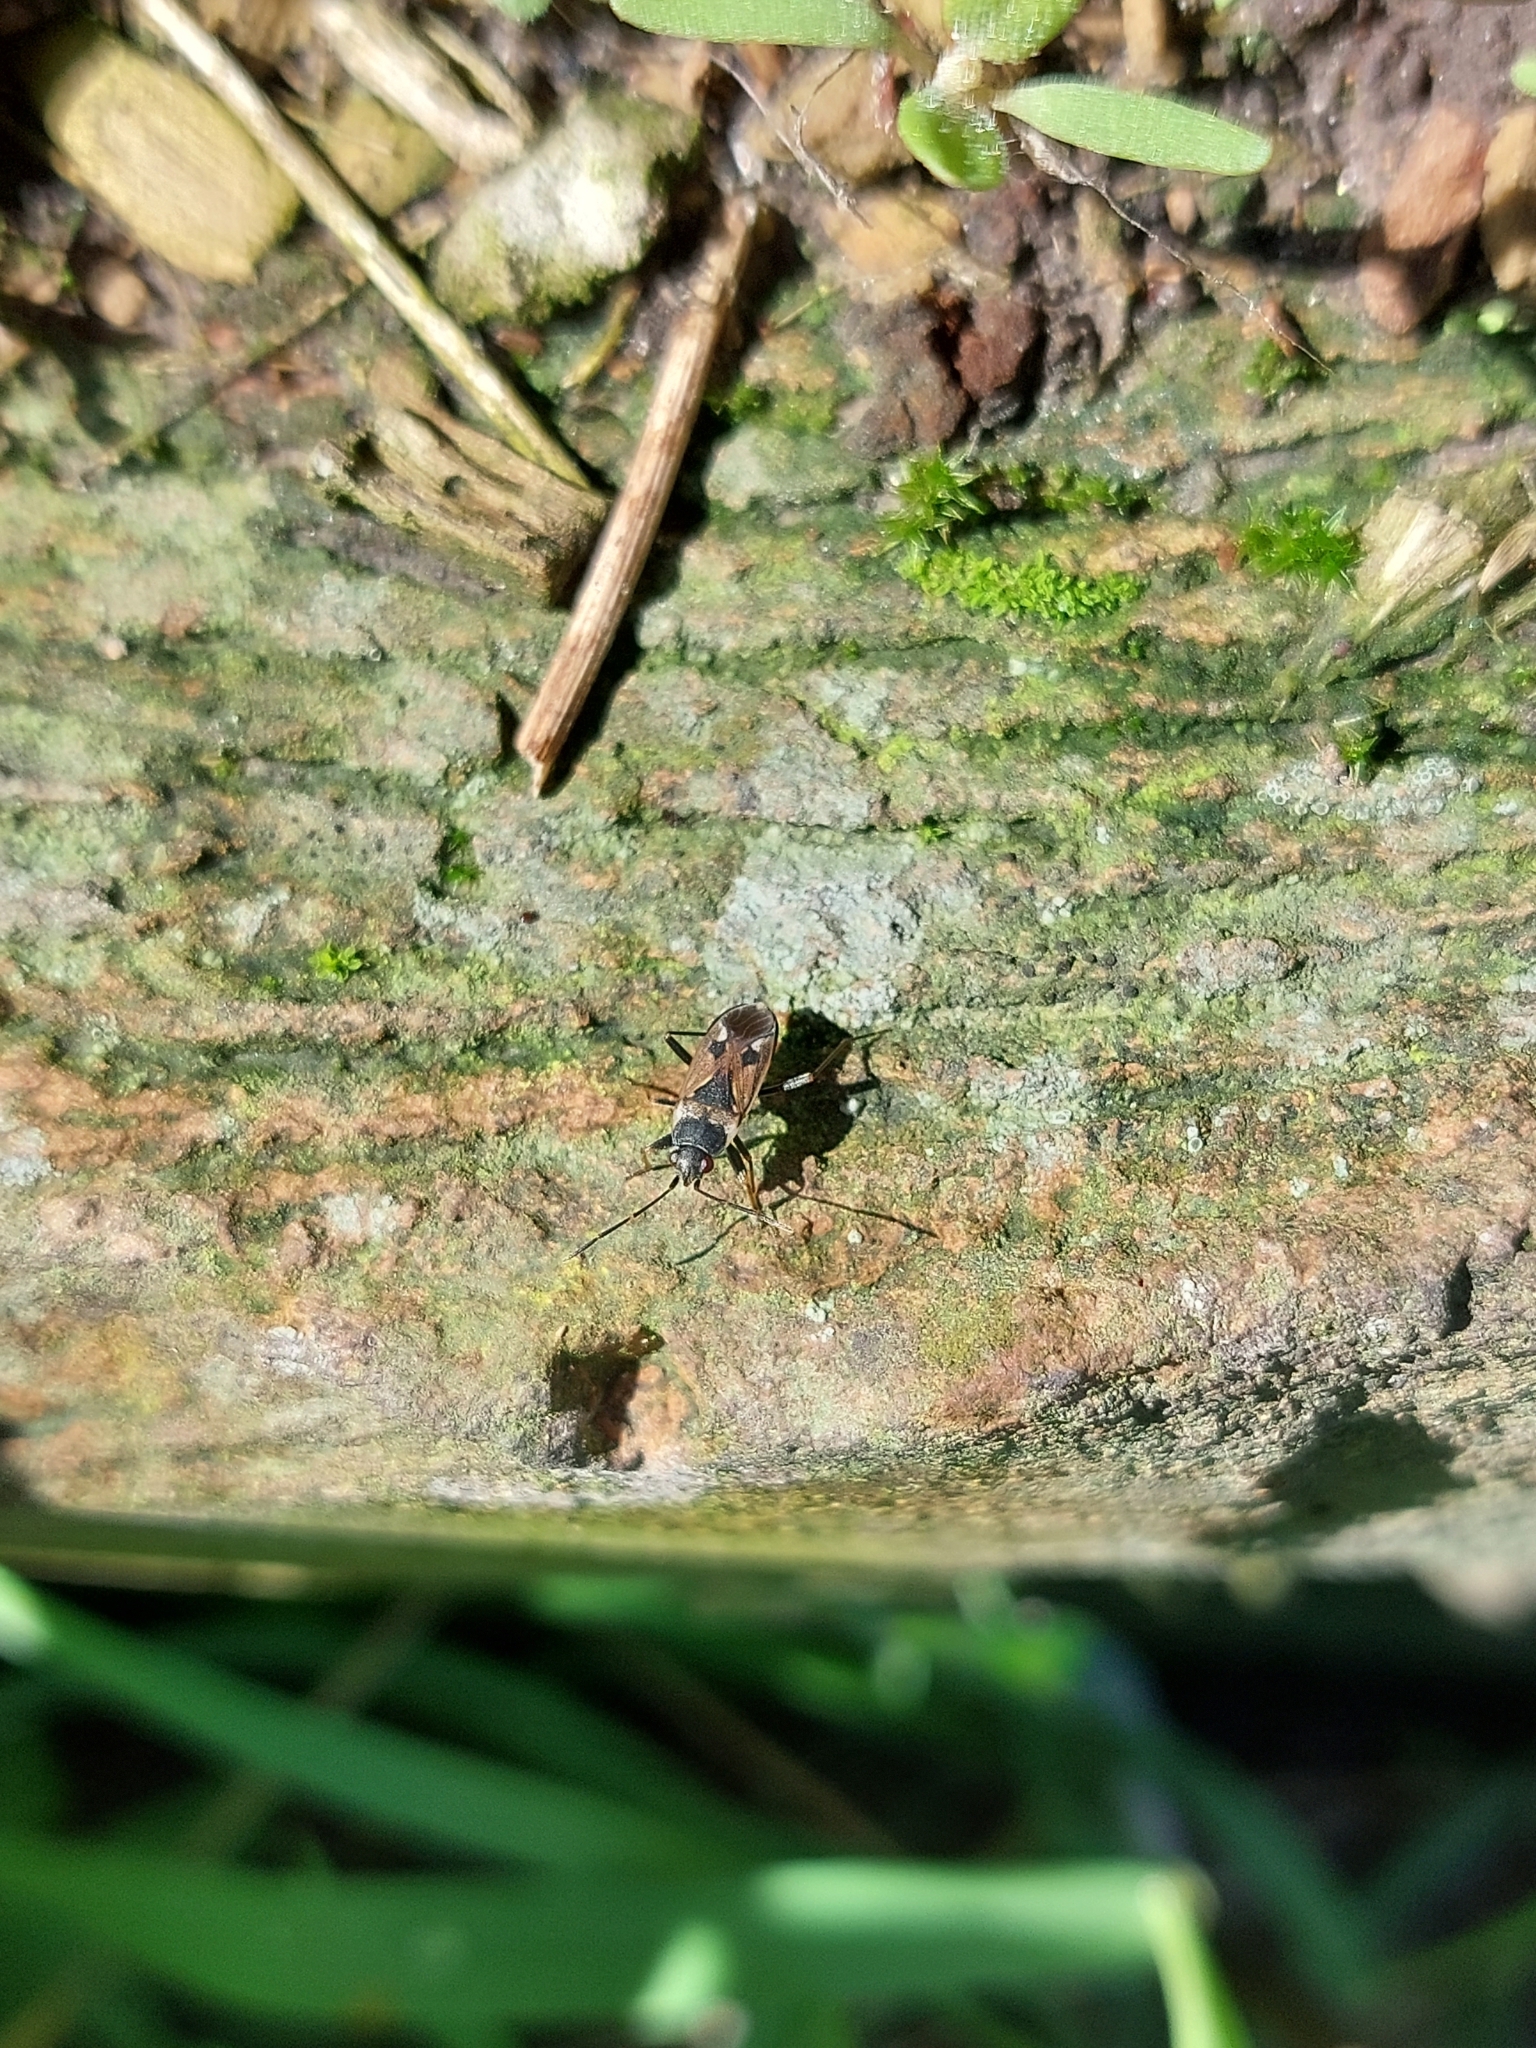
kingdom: Animalia
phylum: Arthropoda
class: Insecta
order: Hemiptera
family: Rhyparochromidae
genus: Rhyparochromus
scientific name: Rhyparochromus vulgaris
